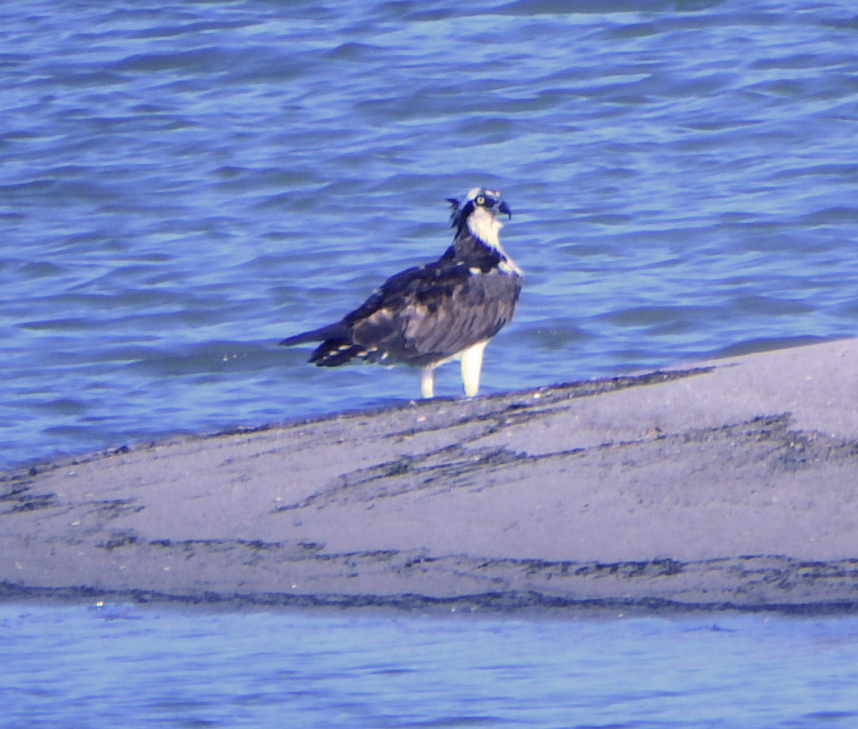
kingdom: Animalia
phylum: Chordata
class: Aves
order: Accipitriformes
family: Pandionidae
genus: Pandion
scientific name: Pandion haliaetus
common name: Osprey
